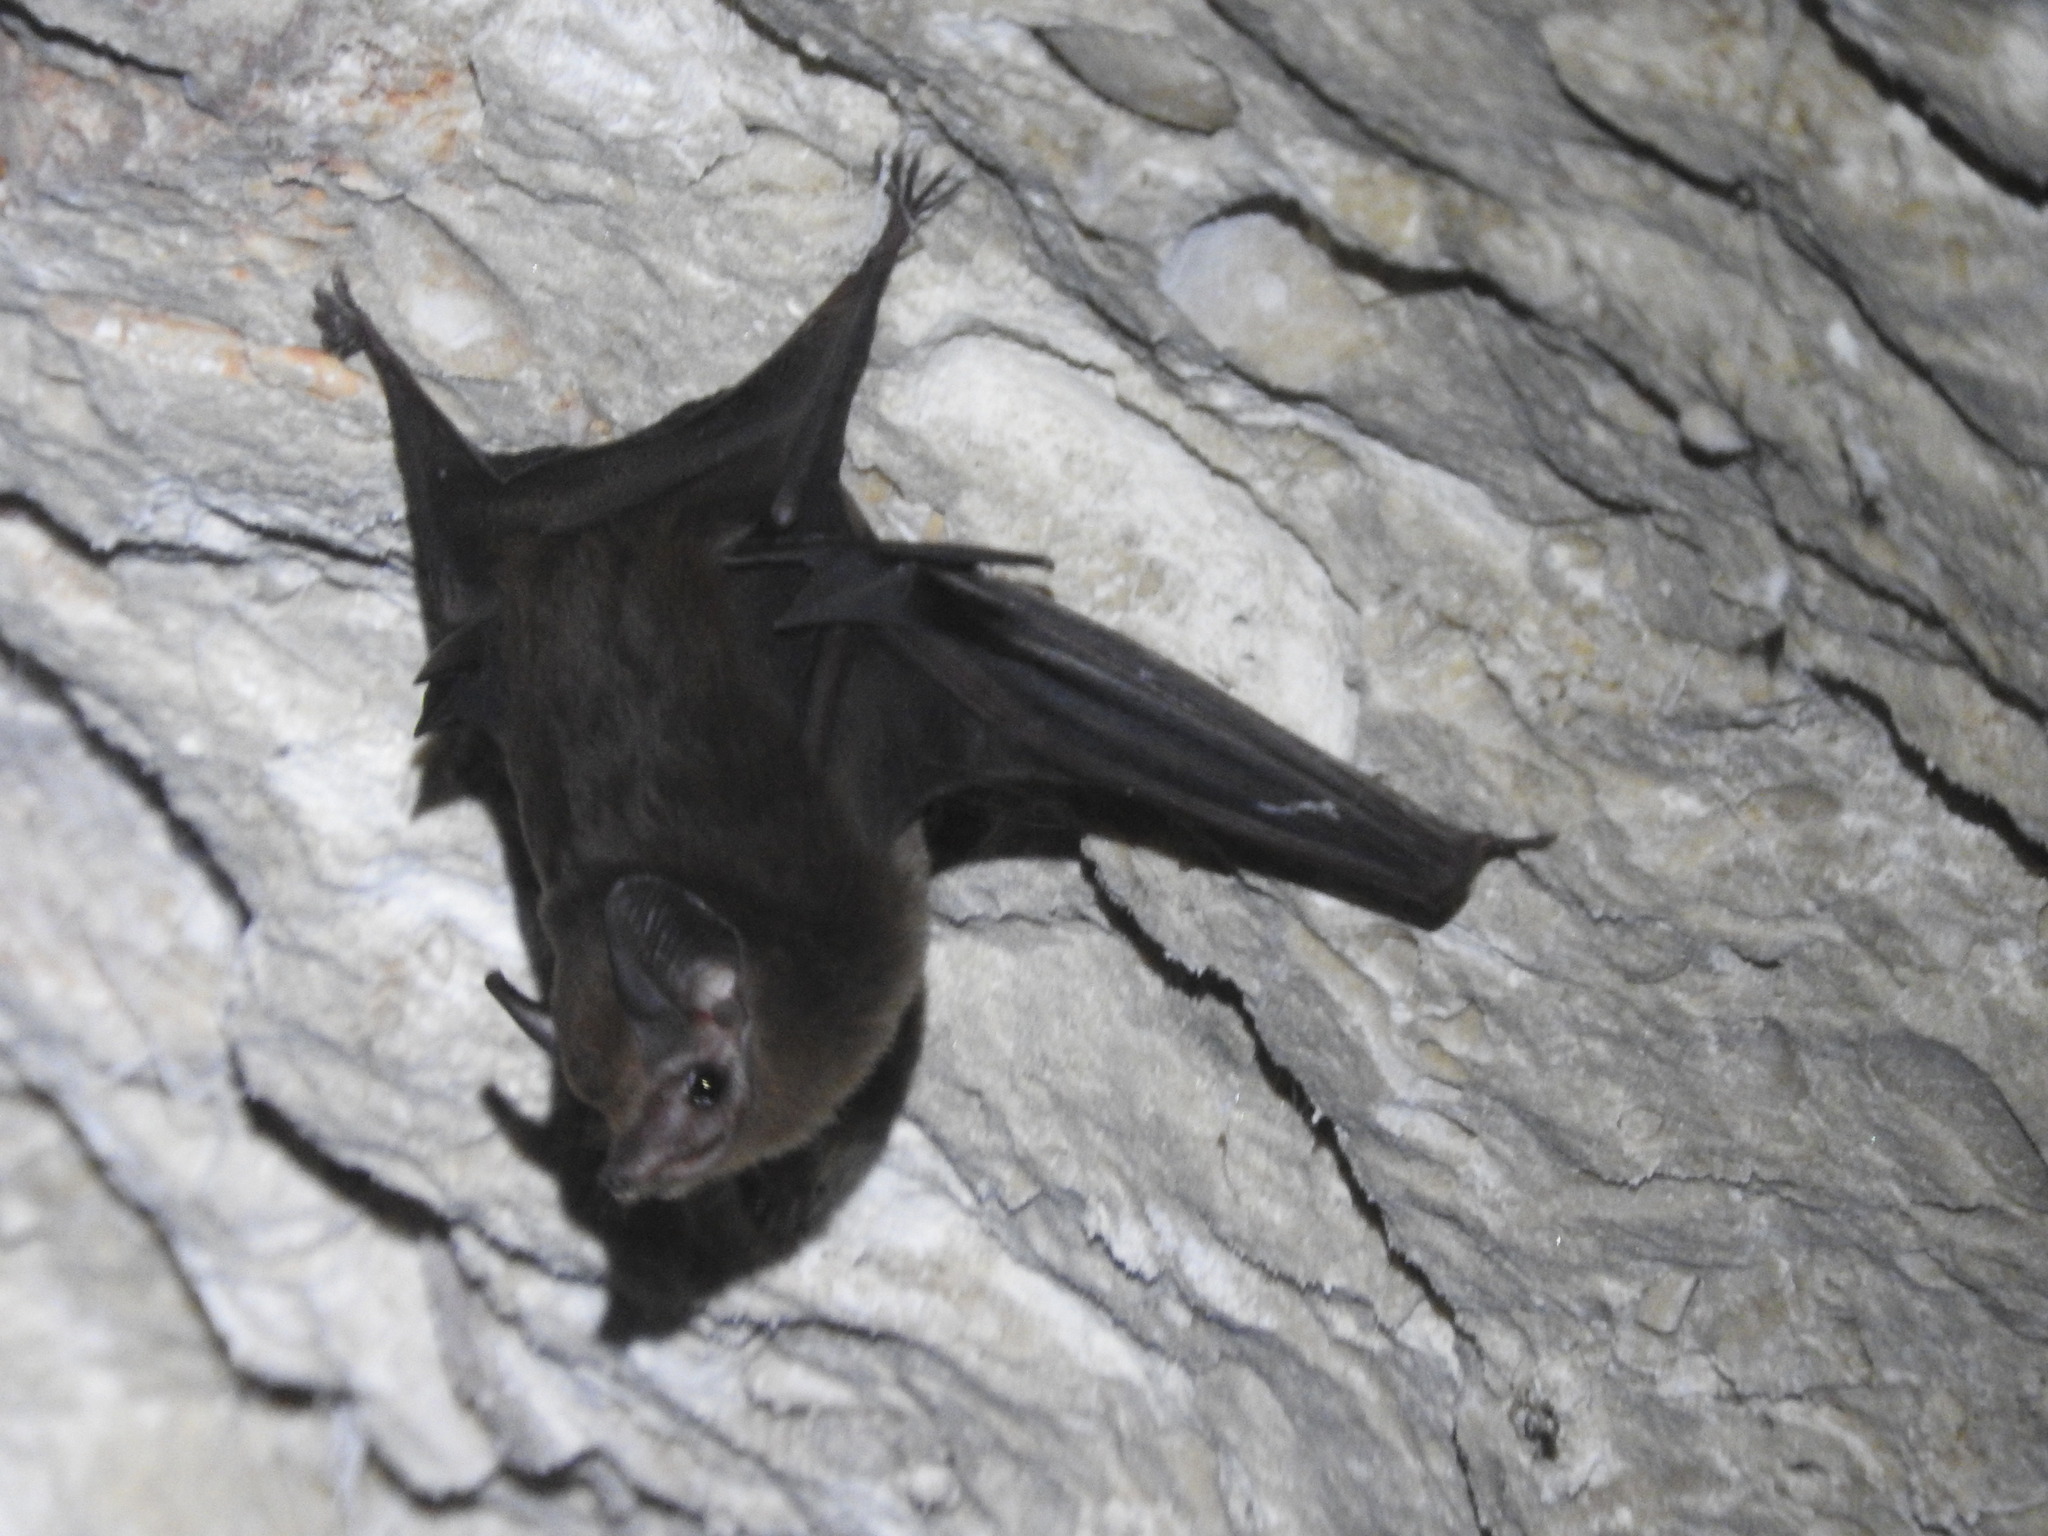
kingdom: Animalia
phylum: Chordata
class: Mammalia
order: Chiroptera
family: Emballonuridae
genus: Peropteryx
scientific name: Peropteryx macrotis
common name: Lesser dog-like bat
